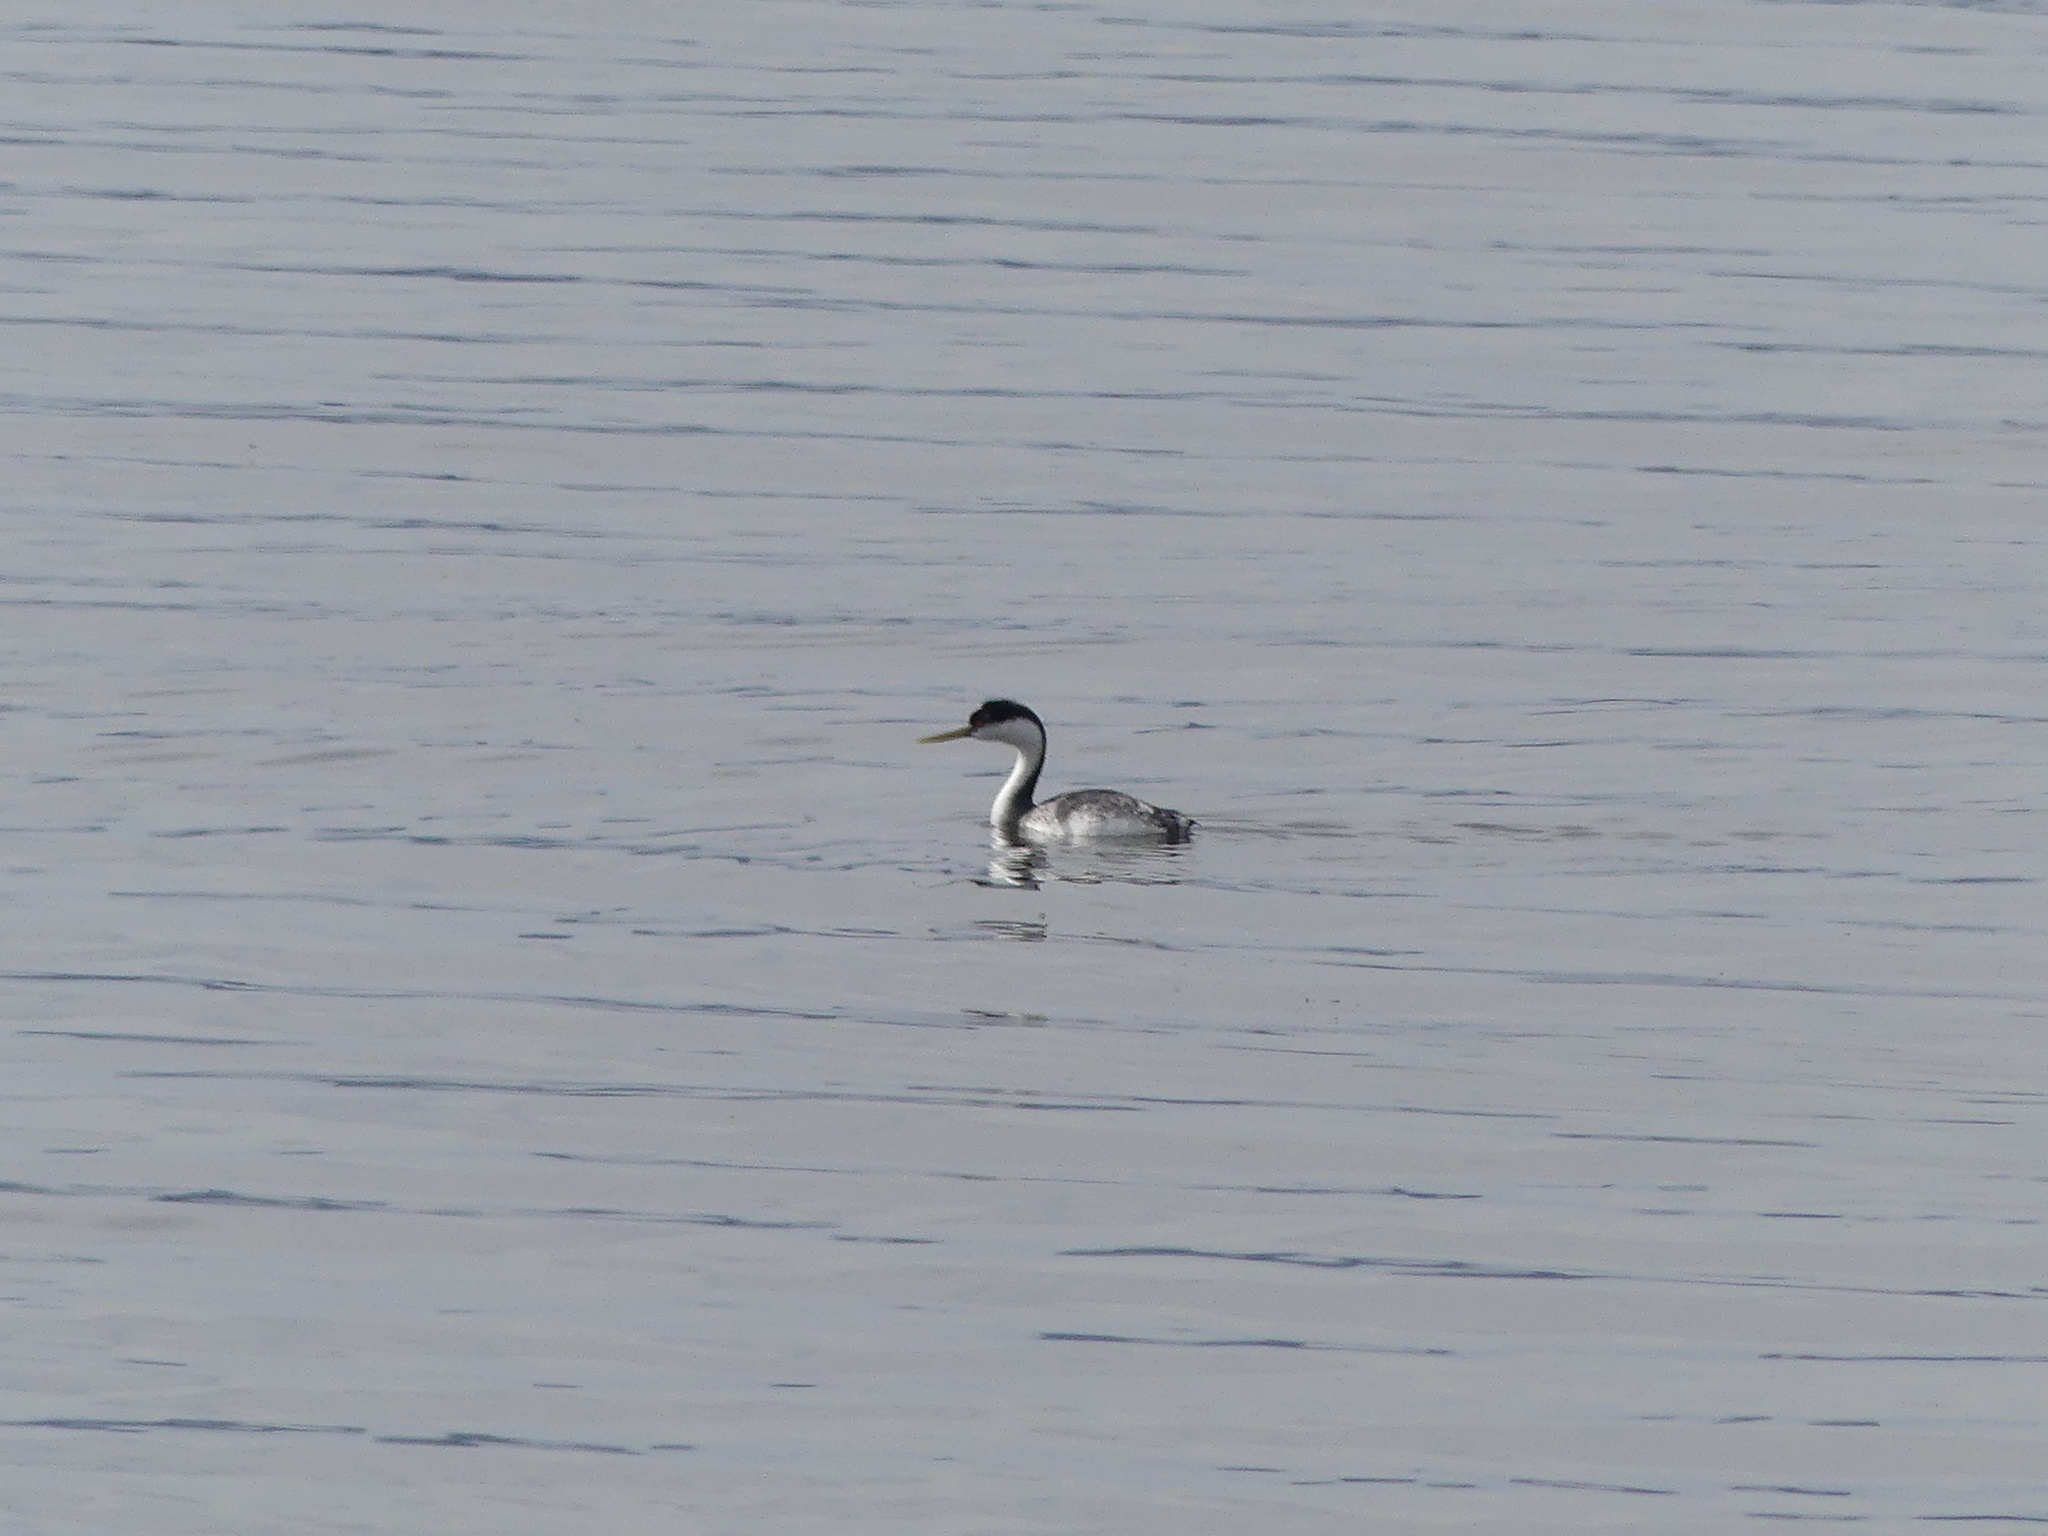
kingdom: Animalia
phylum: Chordata
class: Aves
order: Podicipediformes
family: Podicipedidae
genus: Aechmophorus
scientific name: Aechmophorus occidentalis
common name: Western grebe
